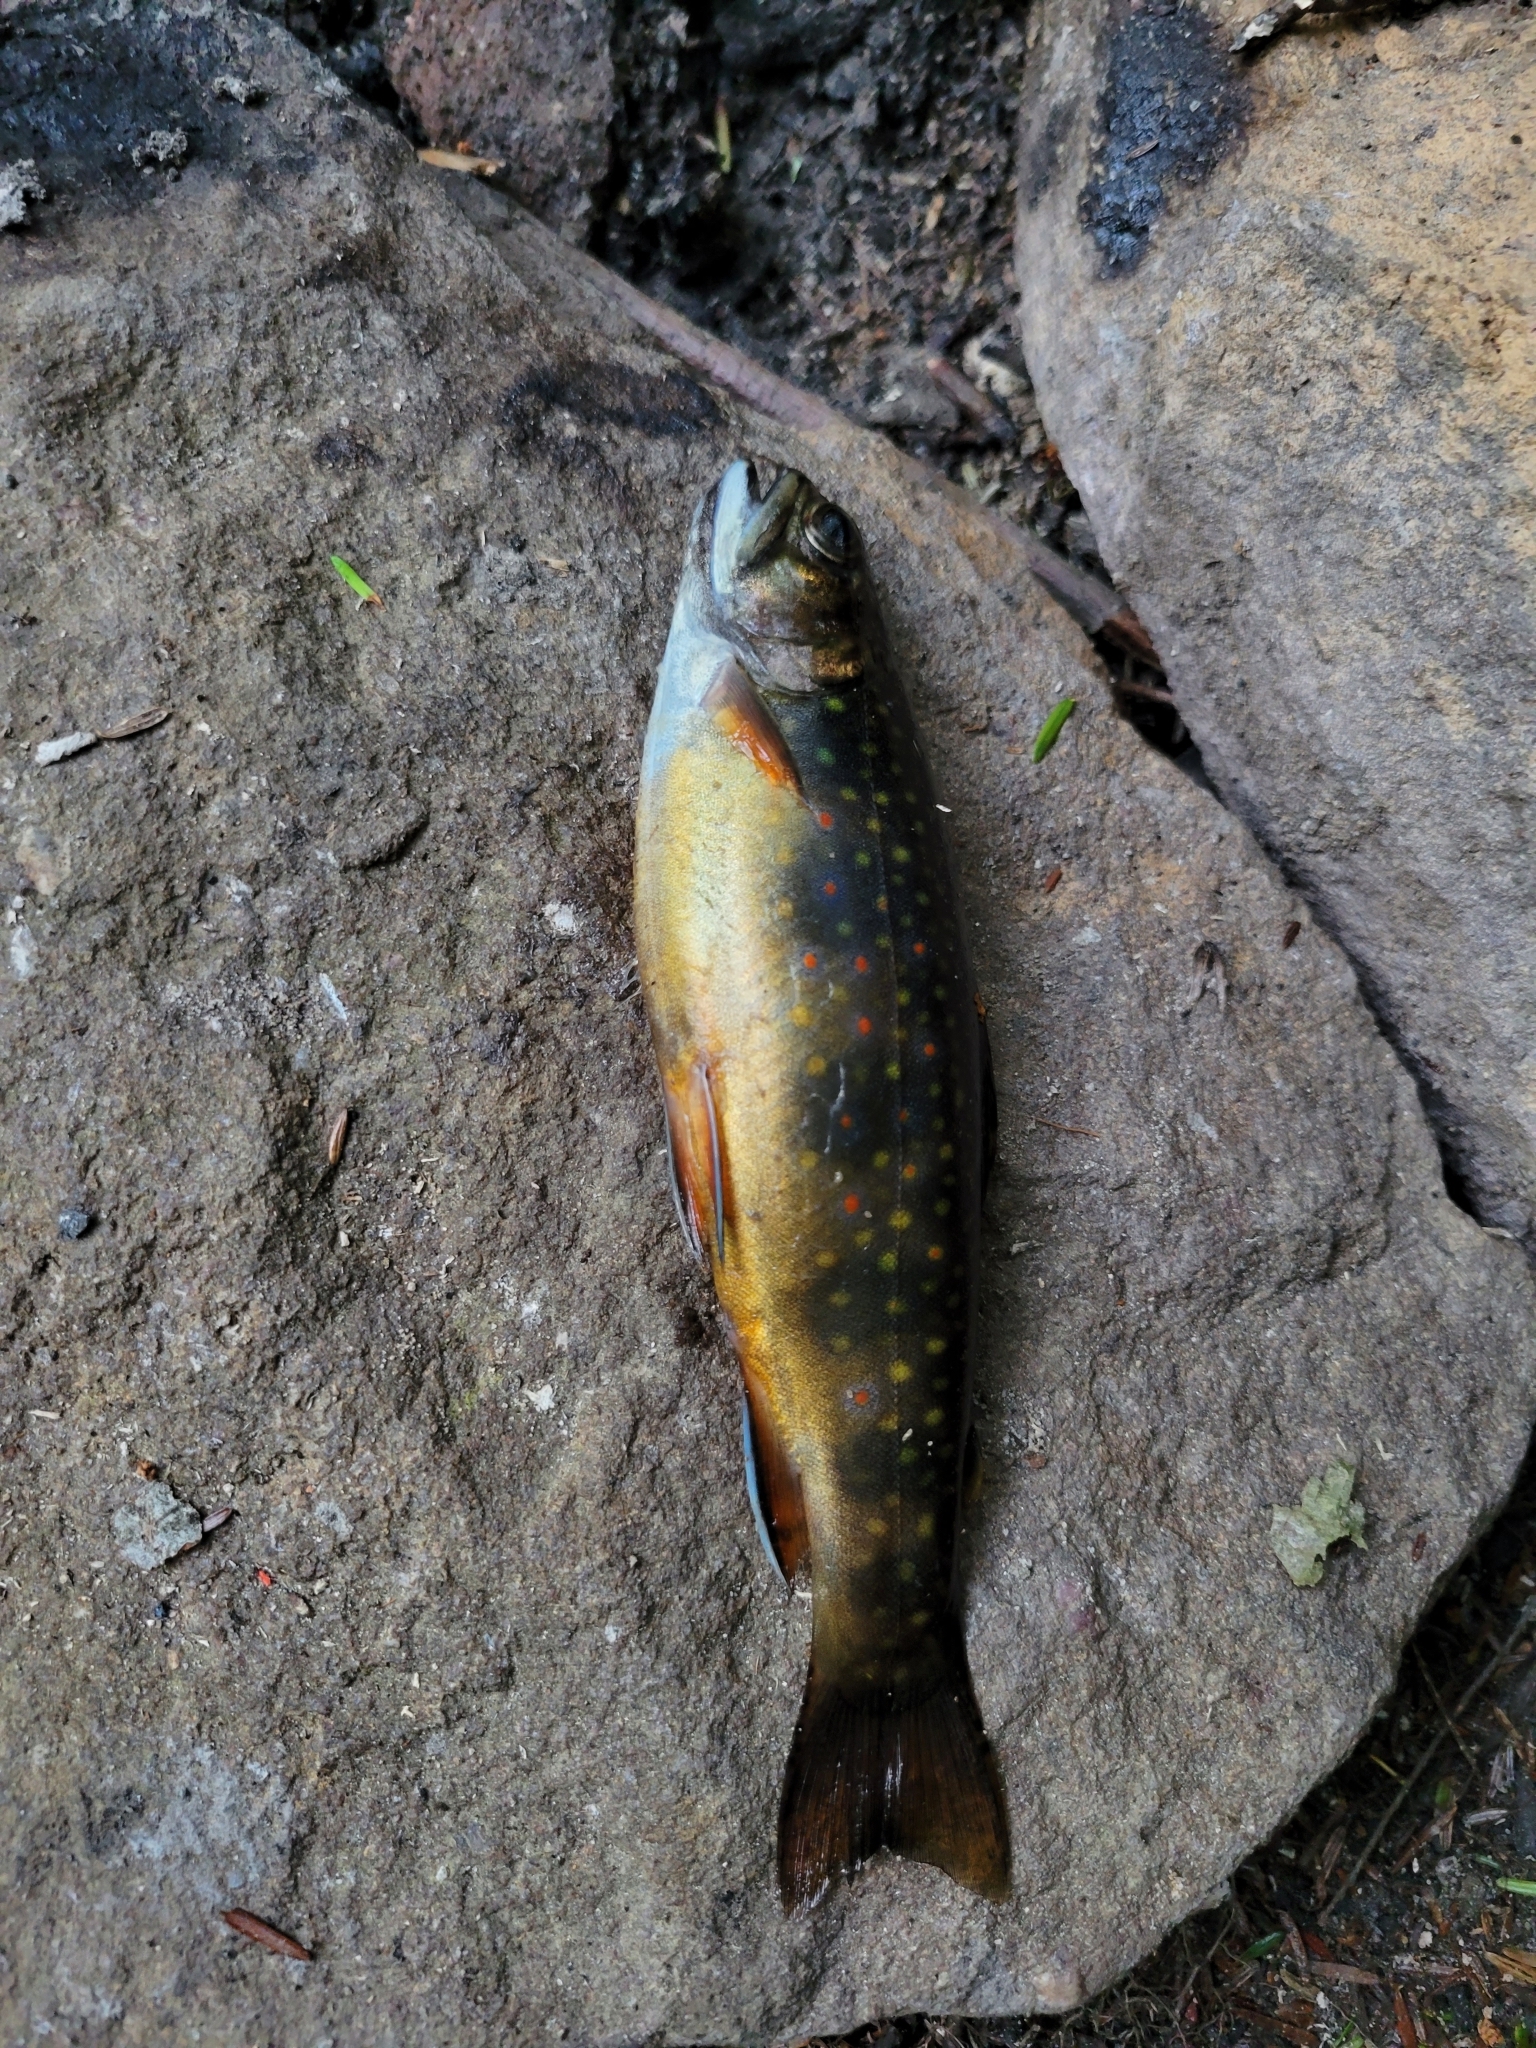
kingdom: Animalia
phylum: Chordata
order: Salmoniformes
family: Salmonidae
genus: Salvelinus
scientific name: Salvelinus fontinalis
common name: Brook trout
